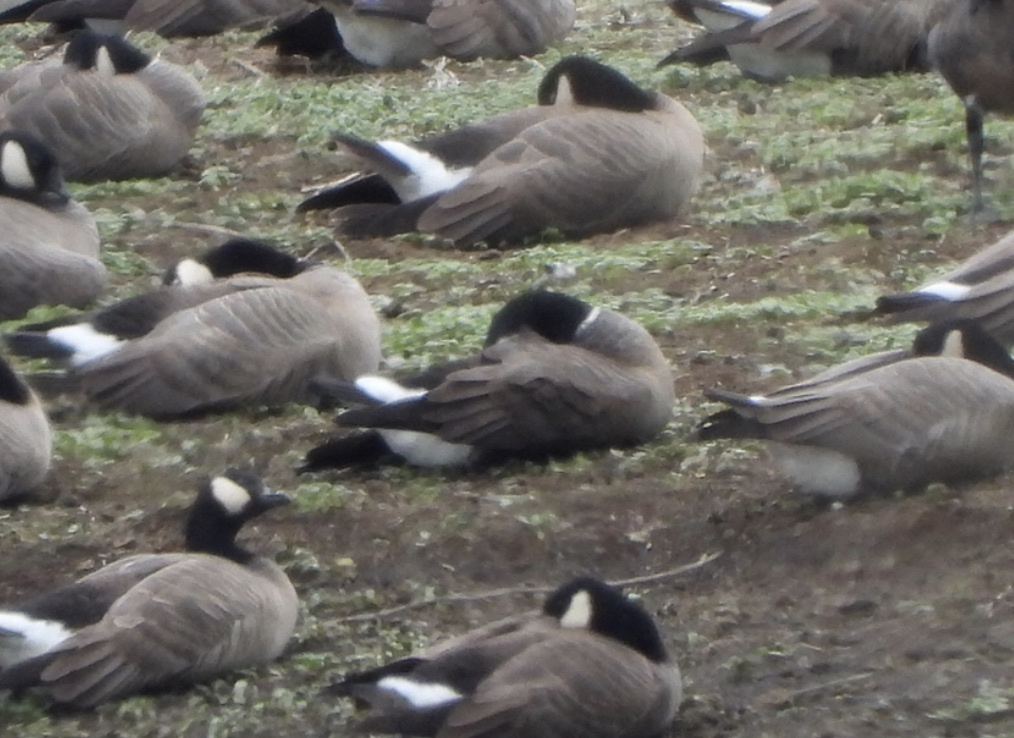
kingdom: Animalia
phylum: Chordata
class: Aves
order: Anseriformes
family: Anatidae
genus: Branta
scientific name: Branta hutchinsii
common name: Cackling goose
